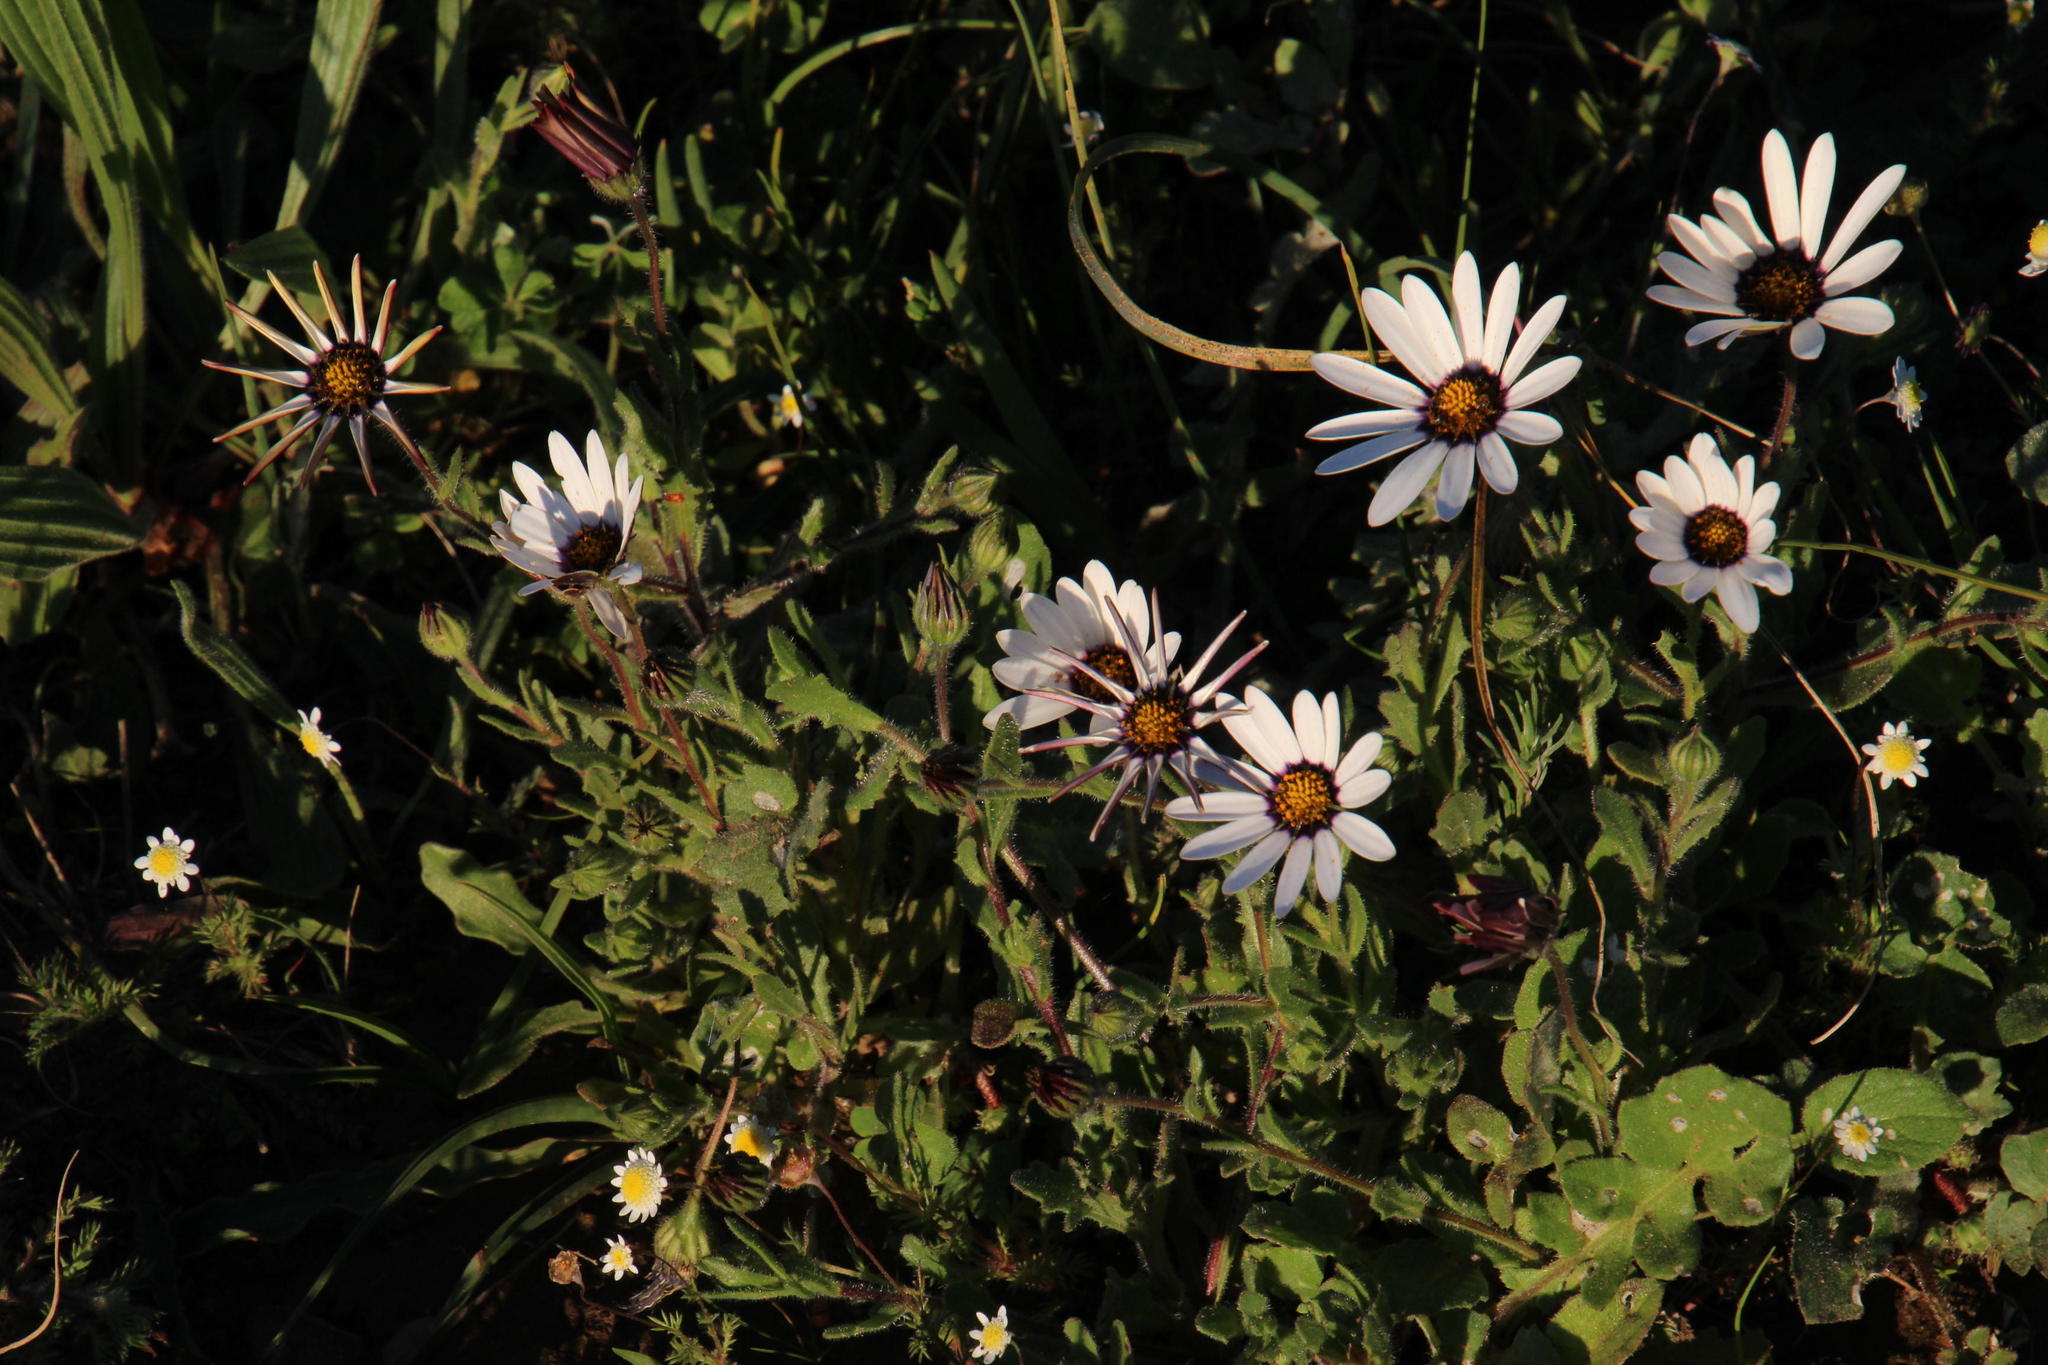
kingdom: Plantae
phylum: Tracheophyta
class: Magnoliopsida
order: Asterales
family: Asteraceae
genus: Dimorphotheca
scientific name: Dimorphotheca pluvialis
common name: Weather prophet
